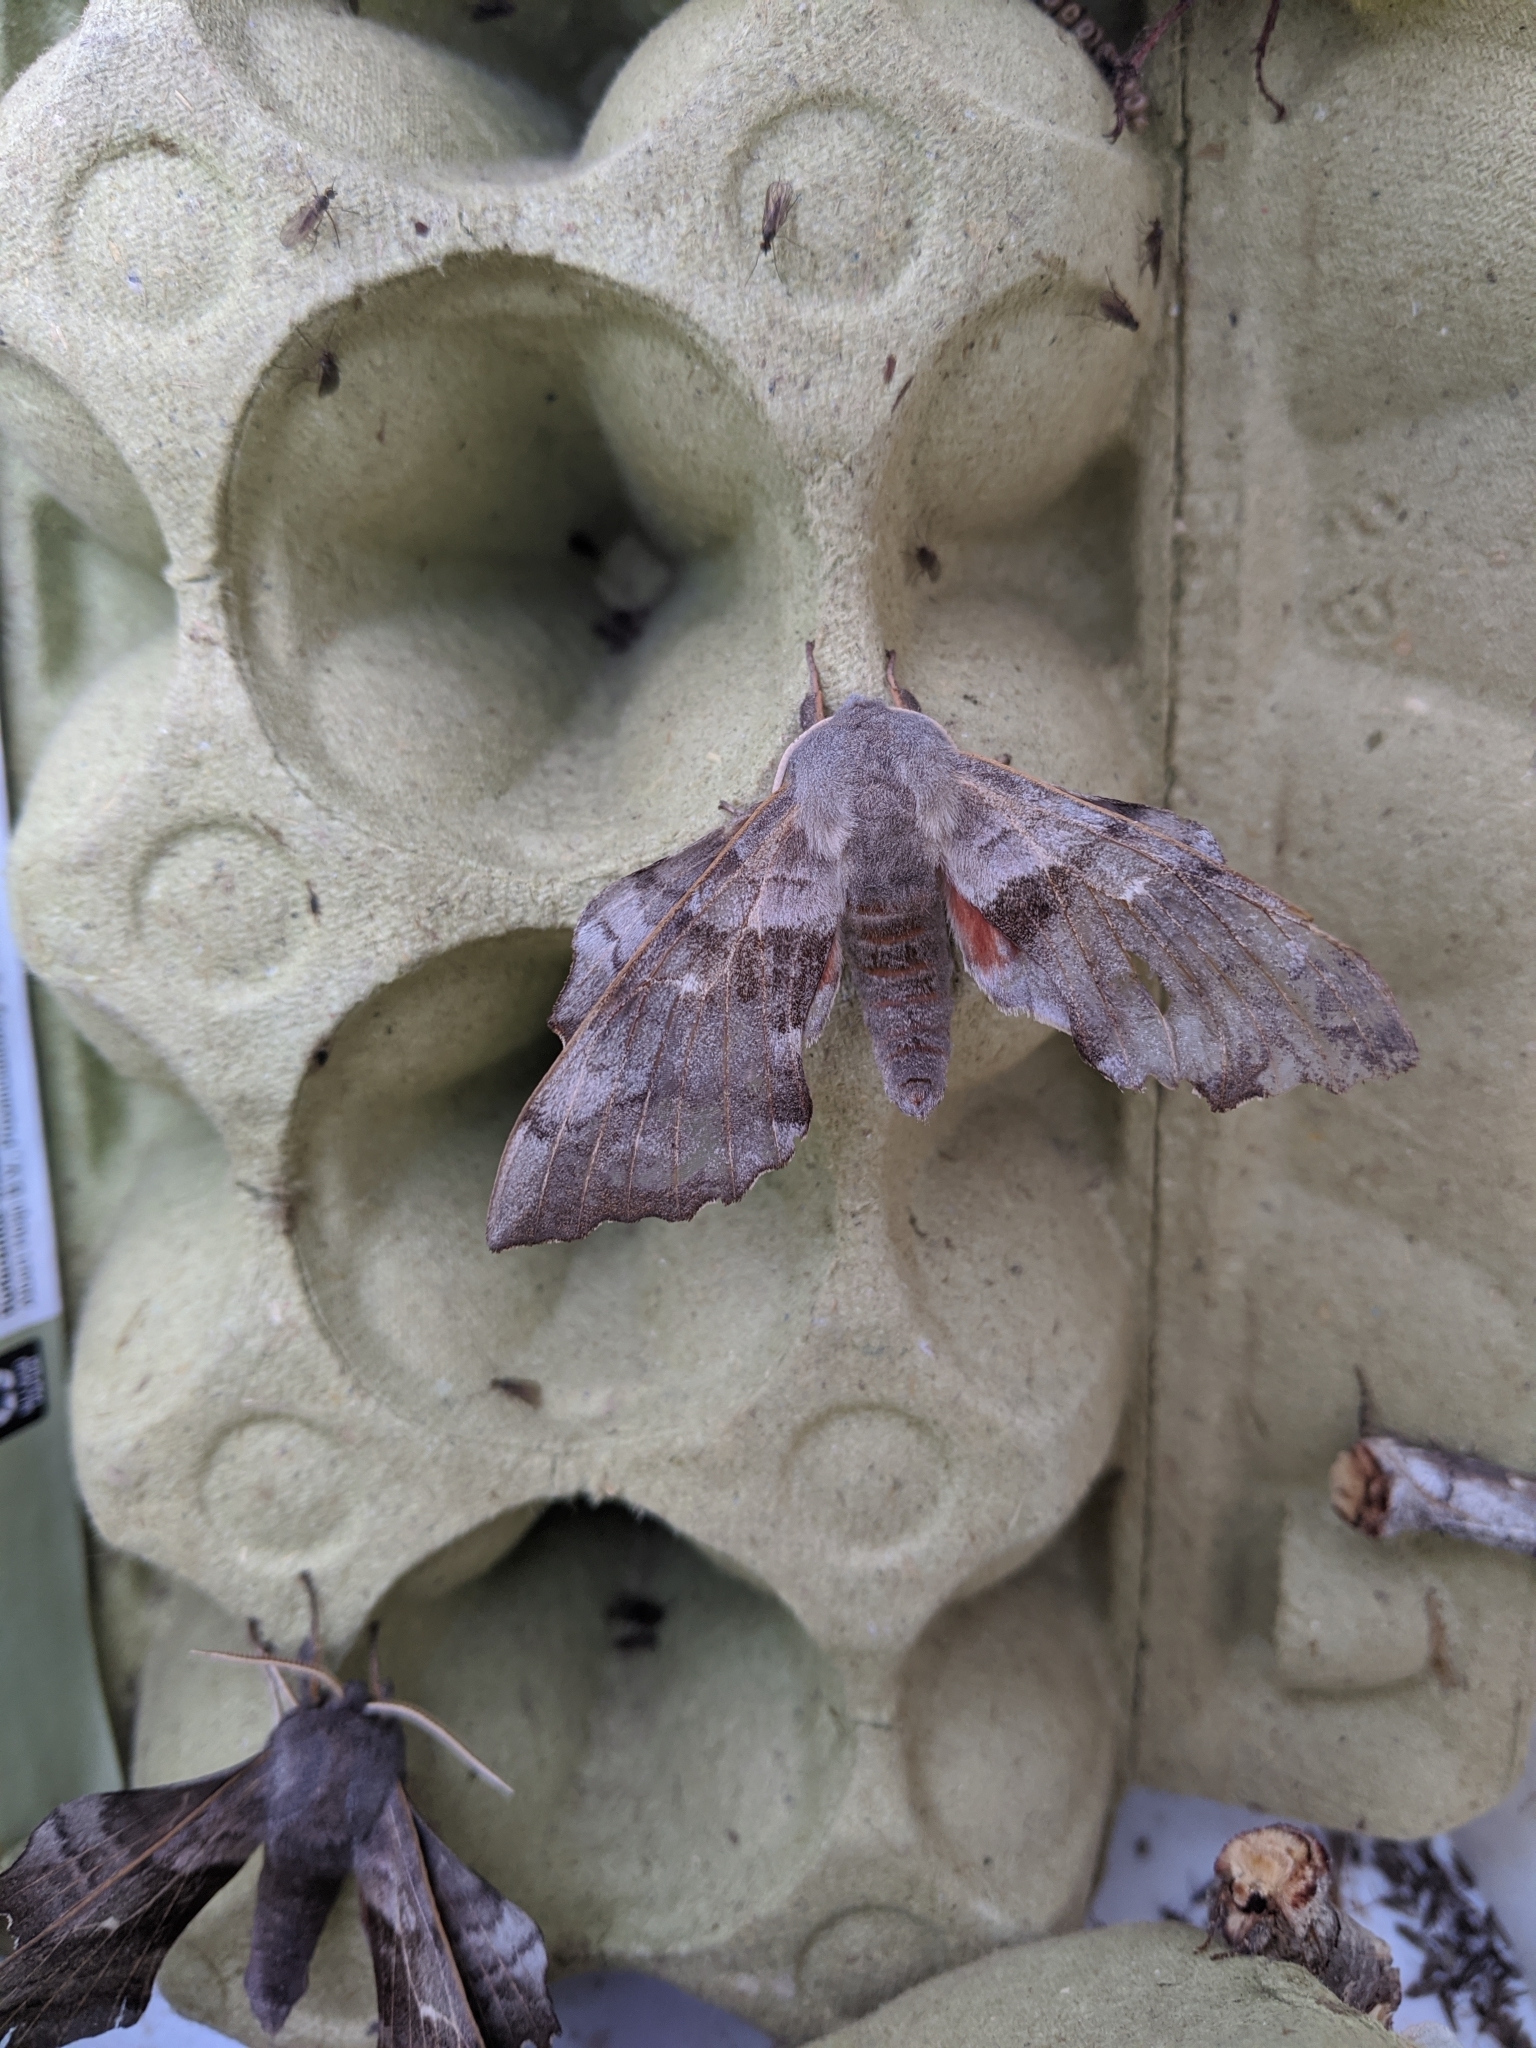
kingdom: Animalia
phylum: Arthropoda
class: Insecta
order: Lepidoptera
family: Sphingidae
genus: Laothoe
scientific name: Laothoe populi
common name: Poplar hawk-moth
